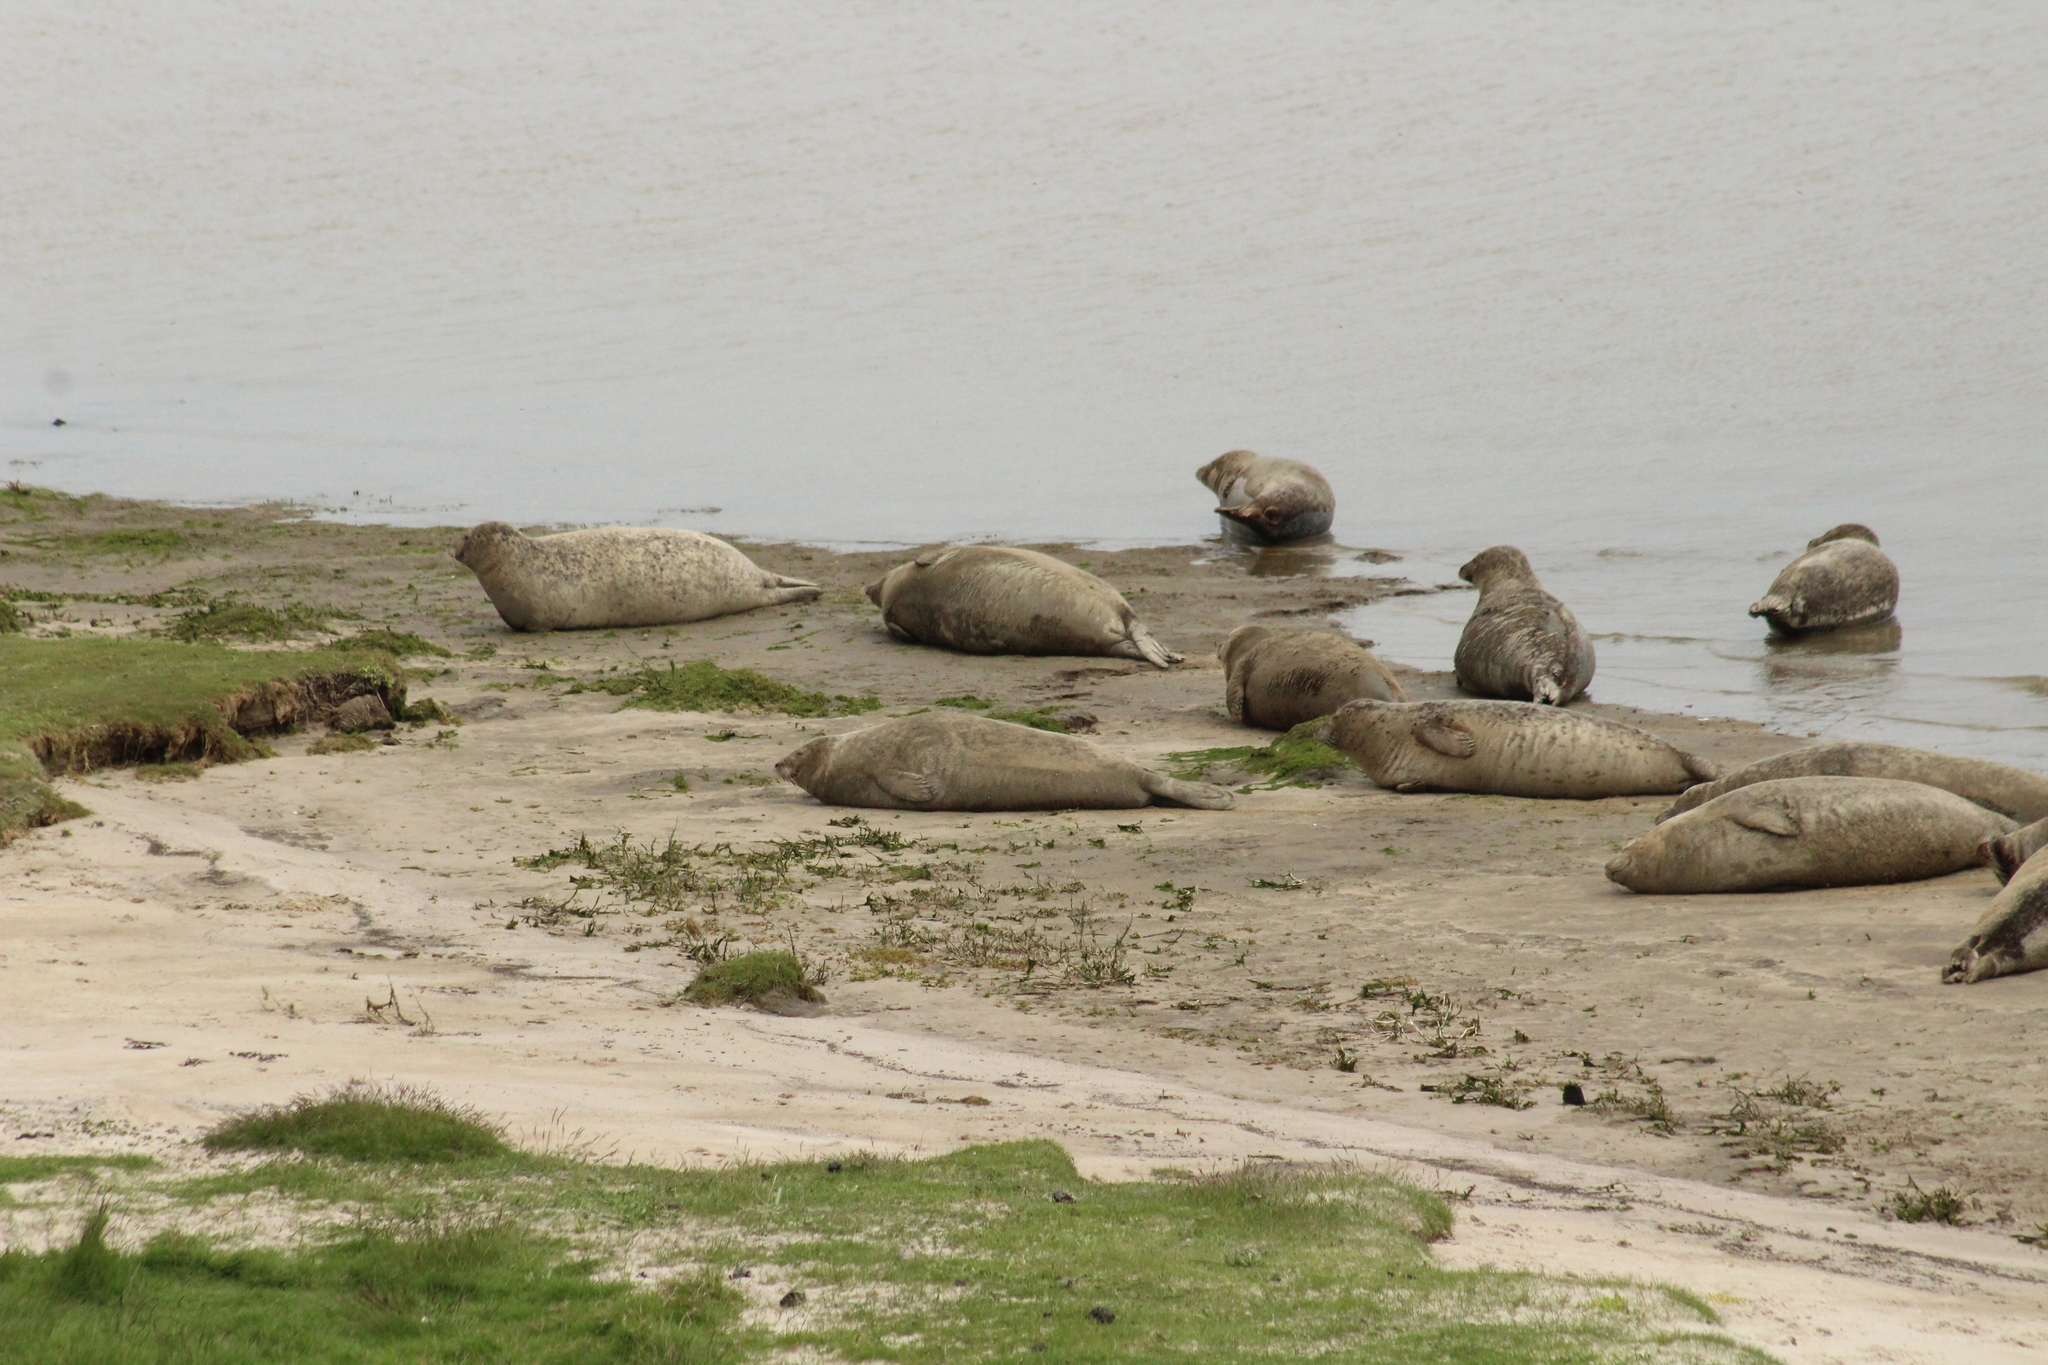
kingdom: Animalia
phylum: Chordata
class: Mammalia
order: Carnivora
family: Phocidae
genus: Phoca
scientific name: Phoca vitulina
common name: Harbor seal
